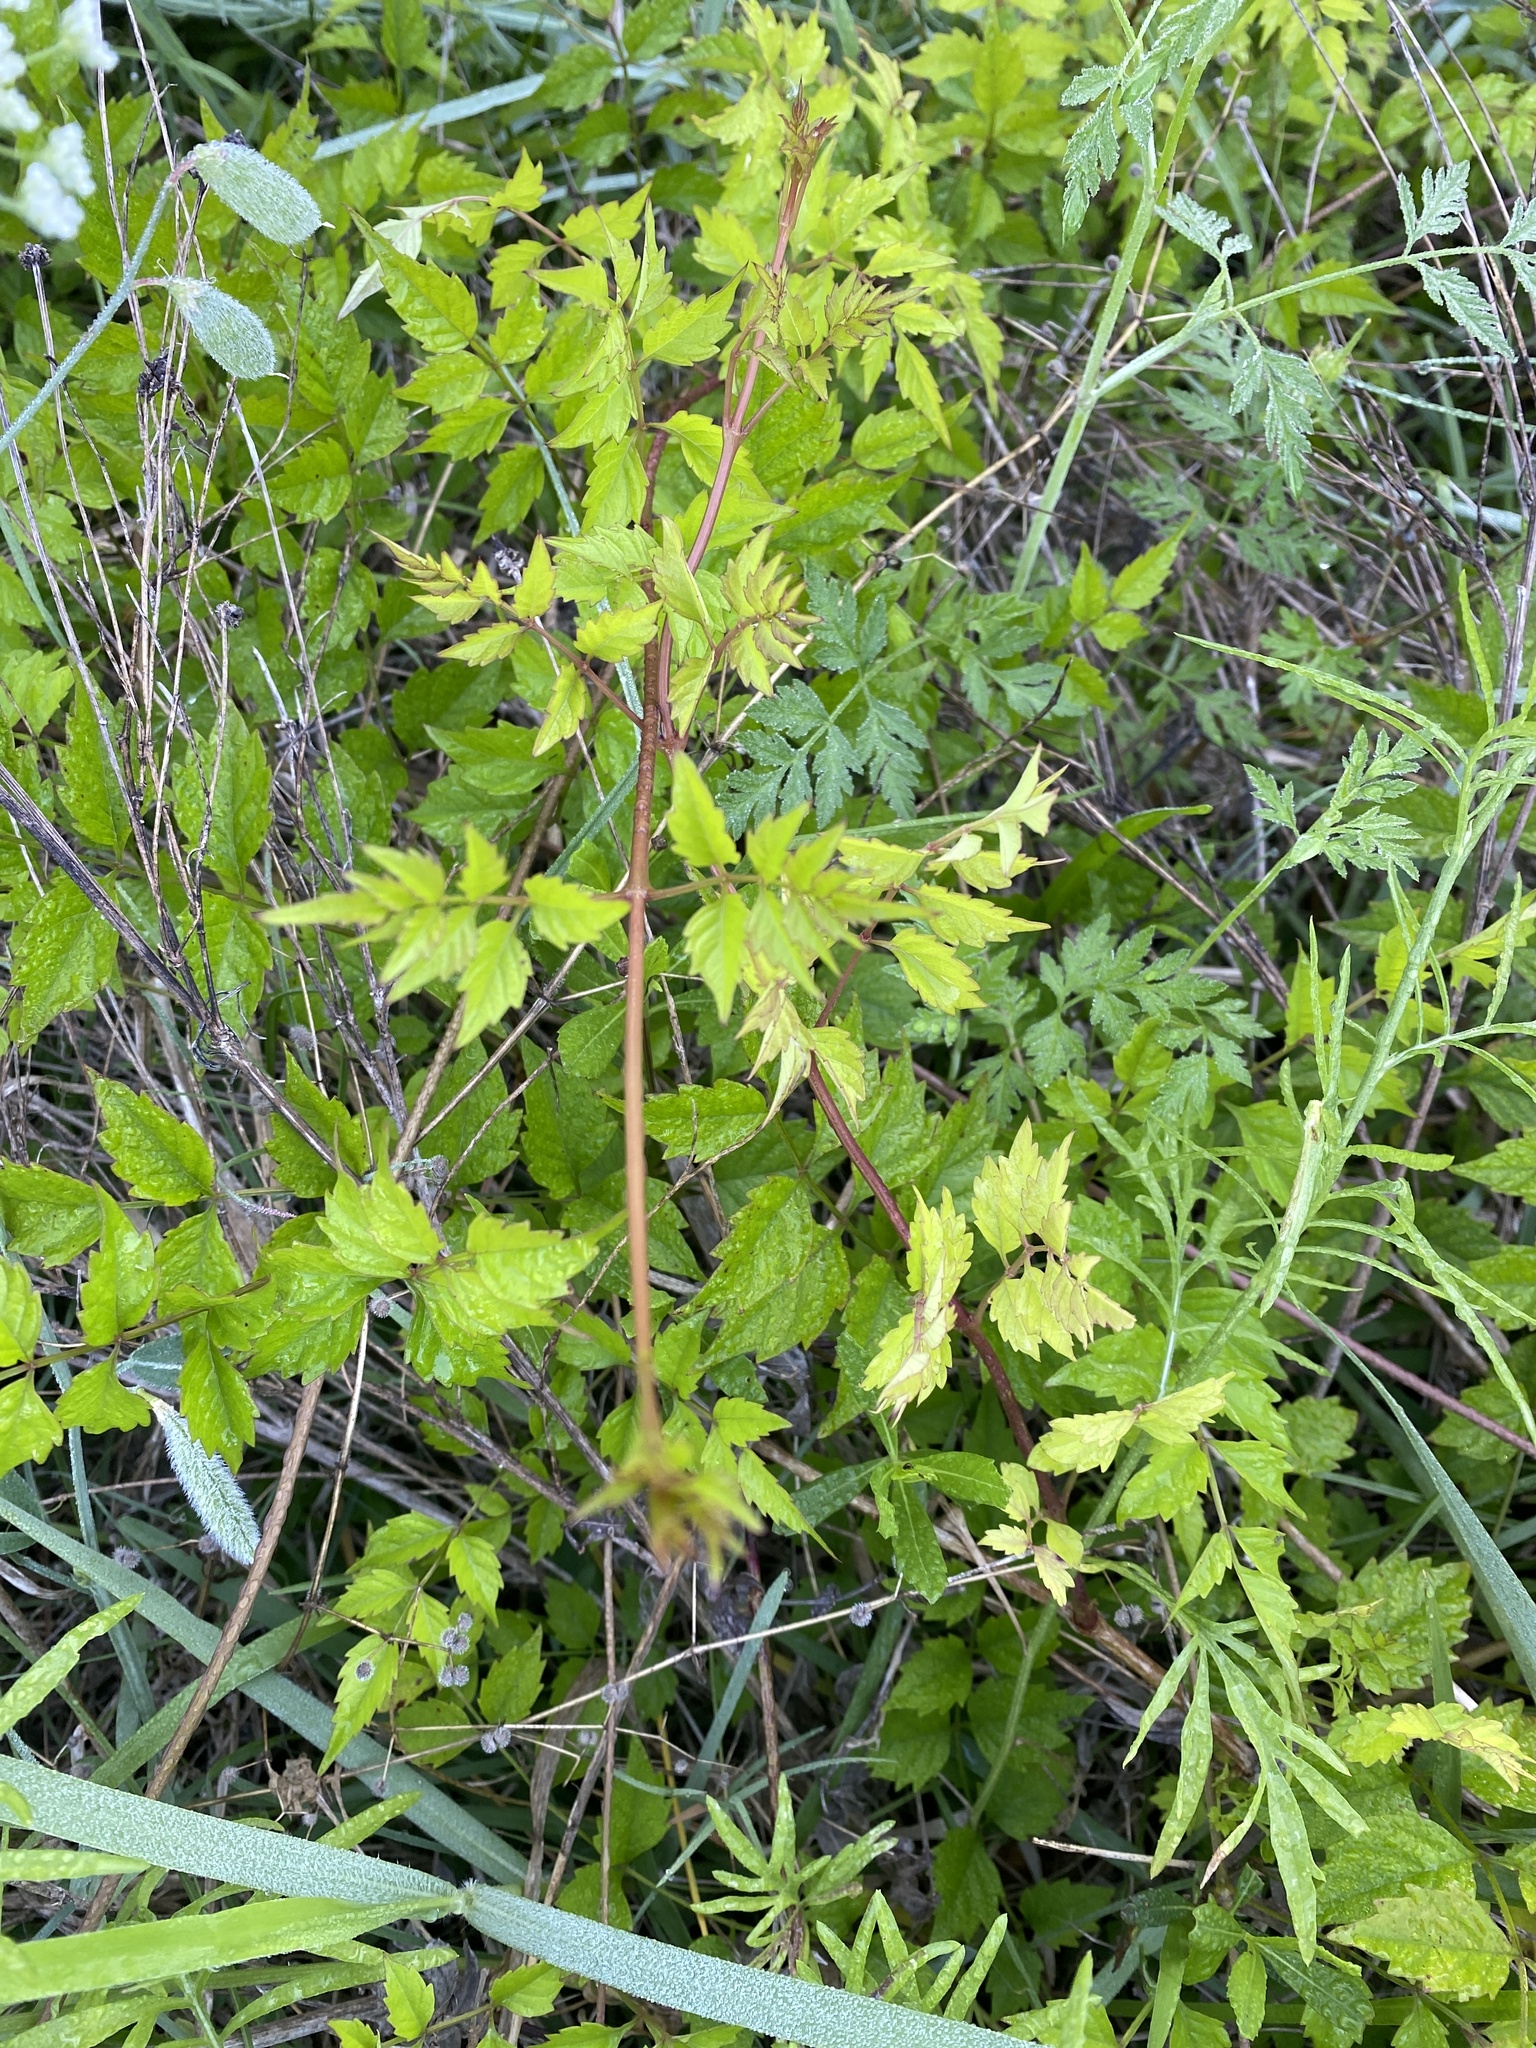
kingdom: Plantae
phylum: Tracheophyta
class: Magnoliopsida
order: Lamiales
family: Bignoniaceae
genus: Campsis
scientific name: Campsis radicans
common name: Trumpet-creeper
